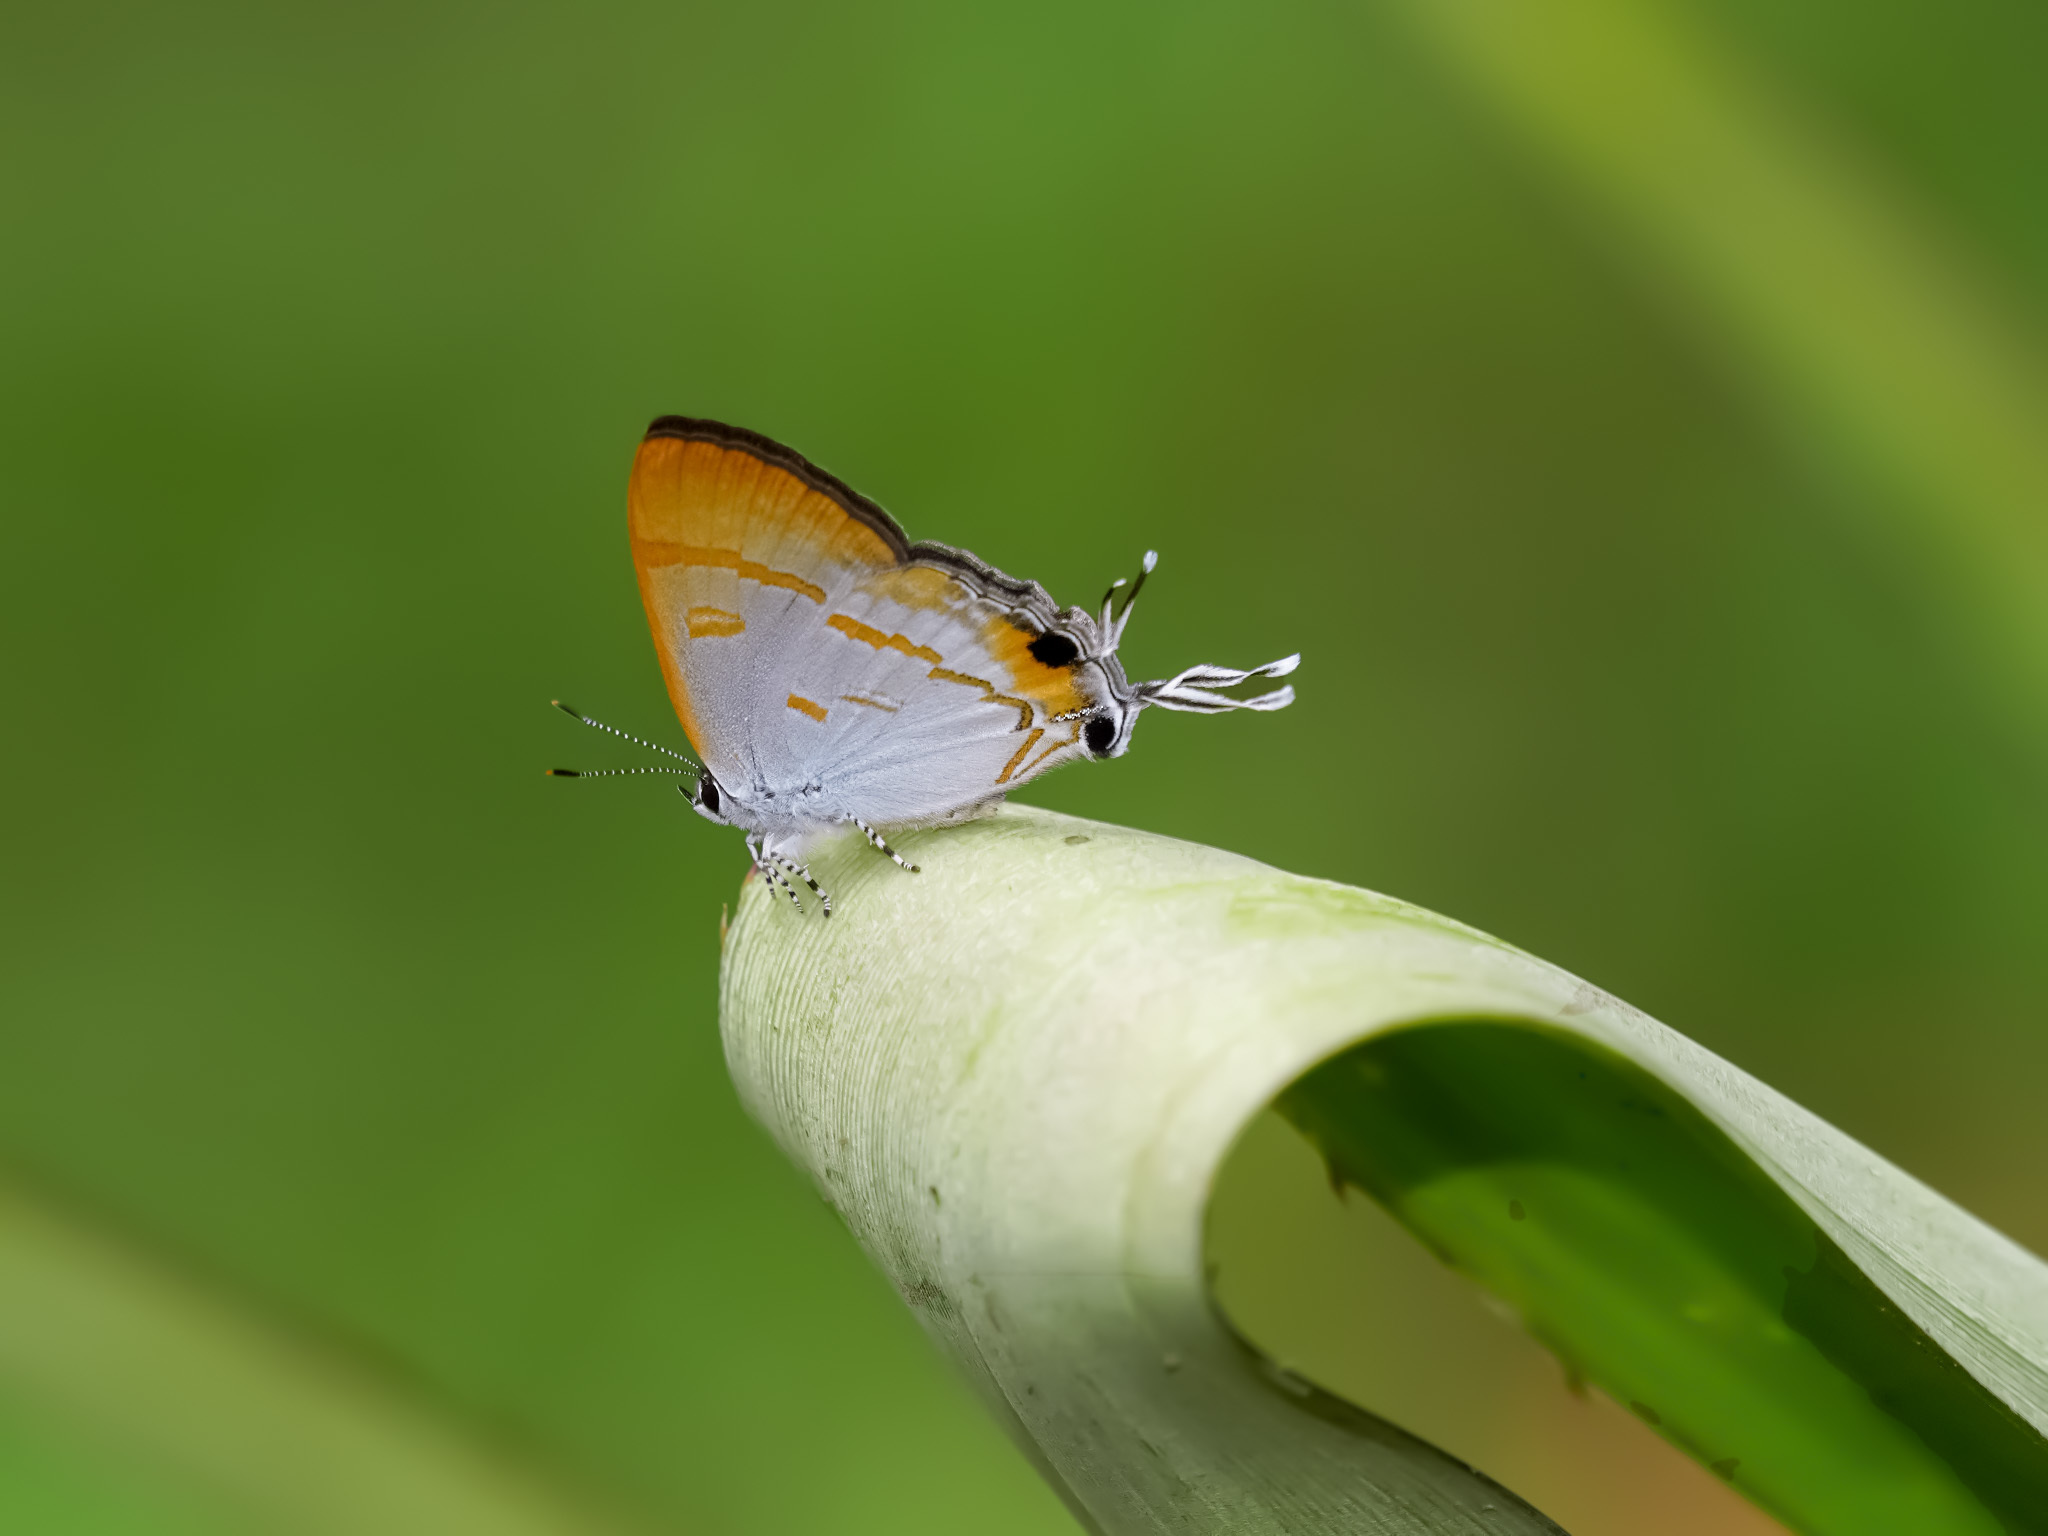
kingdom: Animalia
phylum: Arthropoda
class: Insecta
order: Lepidoptera
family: Lycaenidae
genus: Hypolycaena
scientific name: Hypolycaena thecloides
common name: Dark tit
